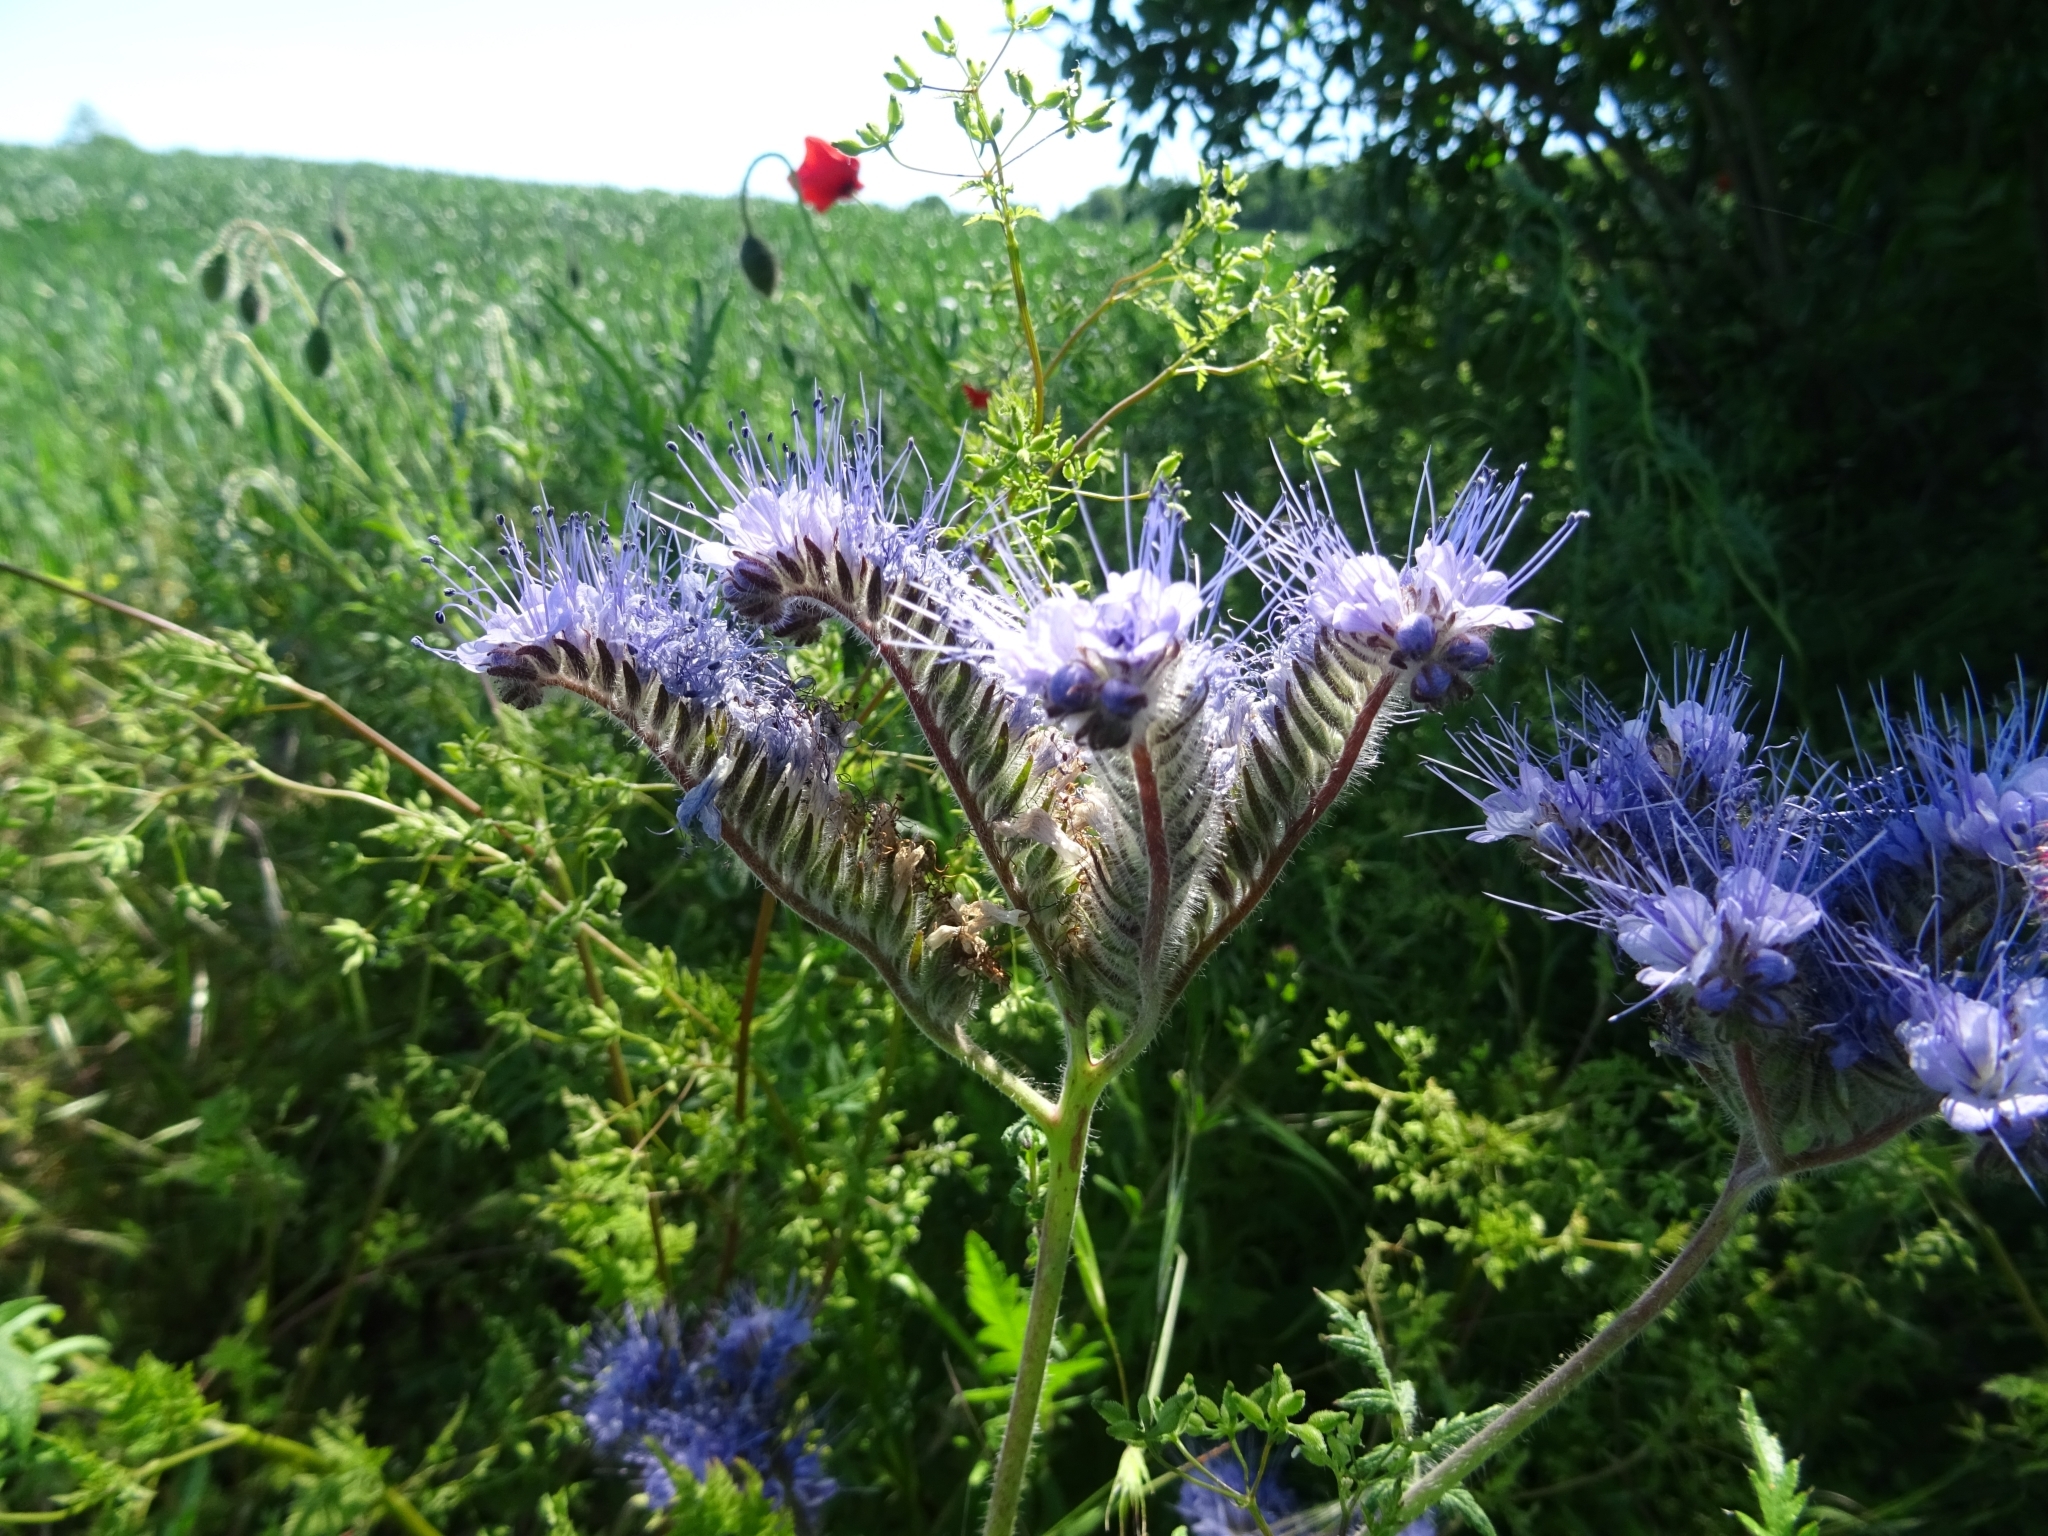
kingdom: Plantae
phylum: Tracheophyta
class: Magnoliopsida
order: Boraginales
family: Hydrophyllaceae
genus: Phacelia
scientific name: Phacelia tanacetifolia
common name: Phacelia
